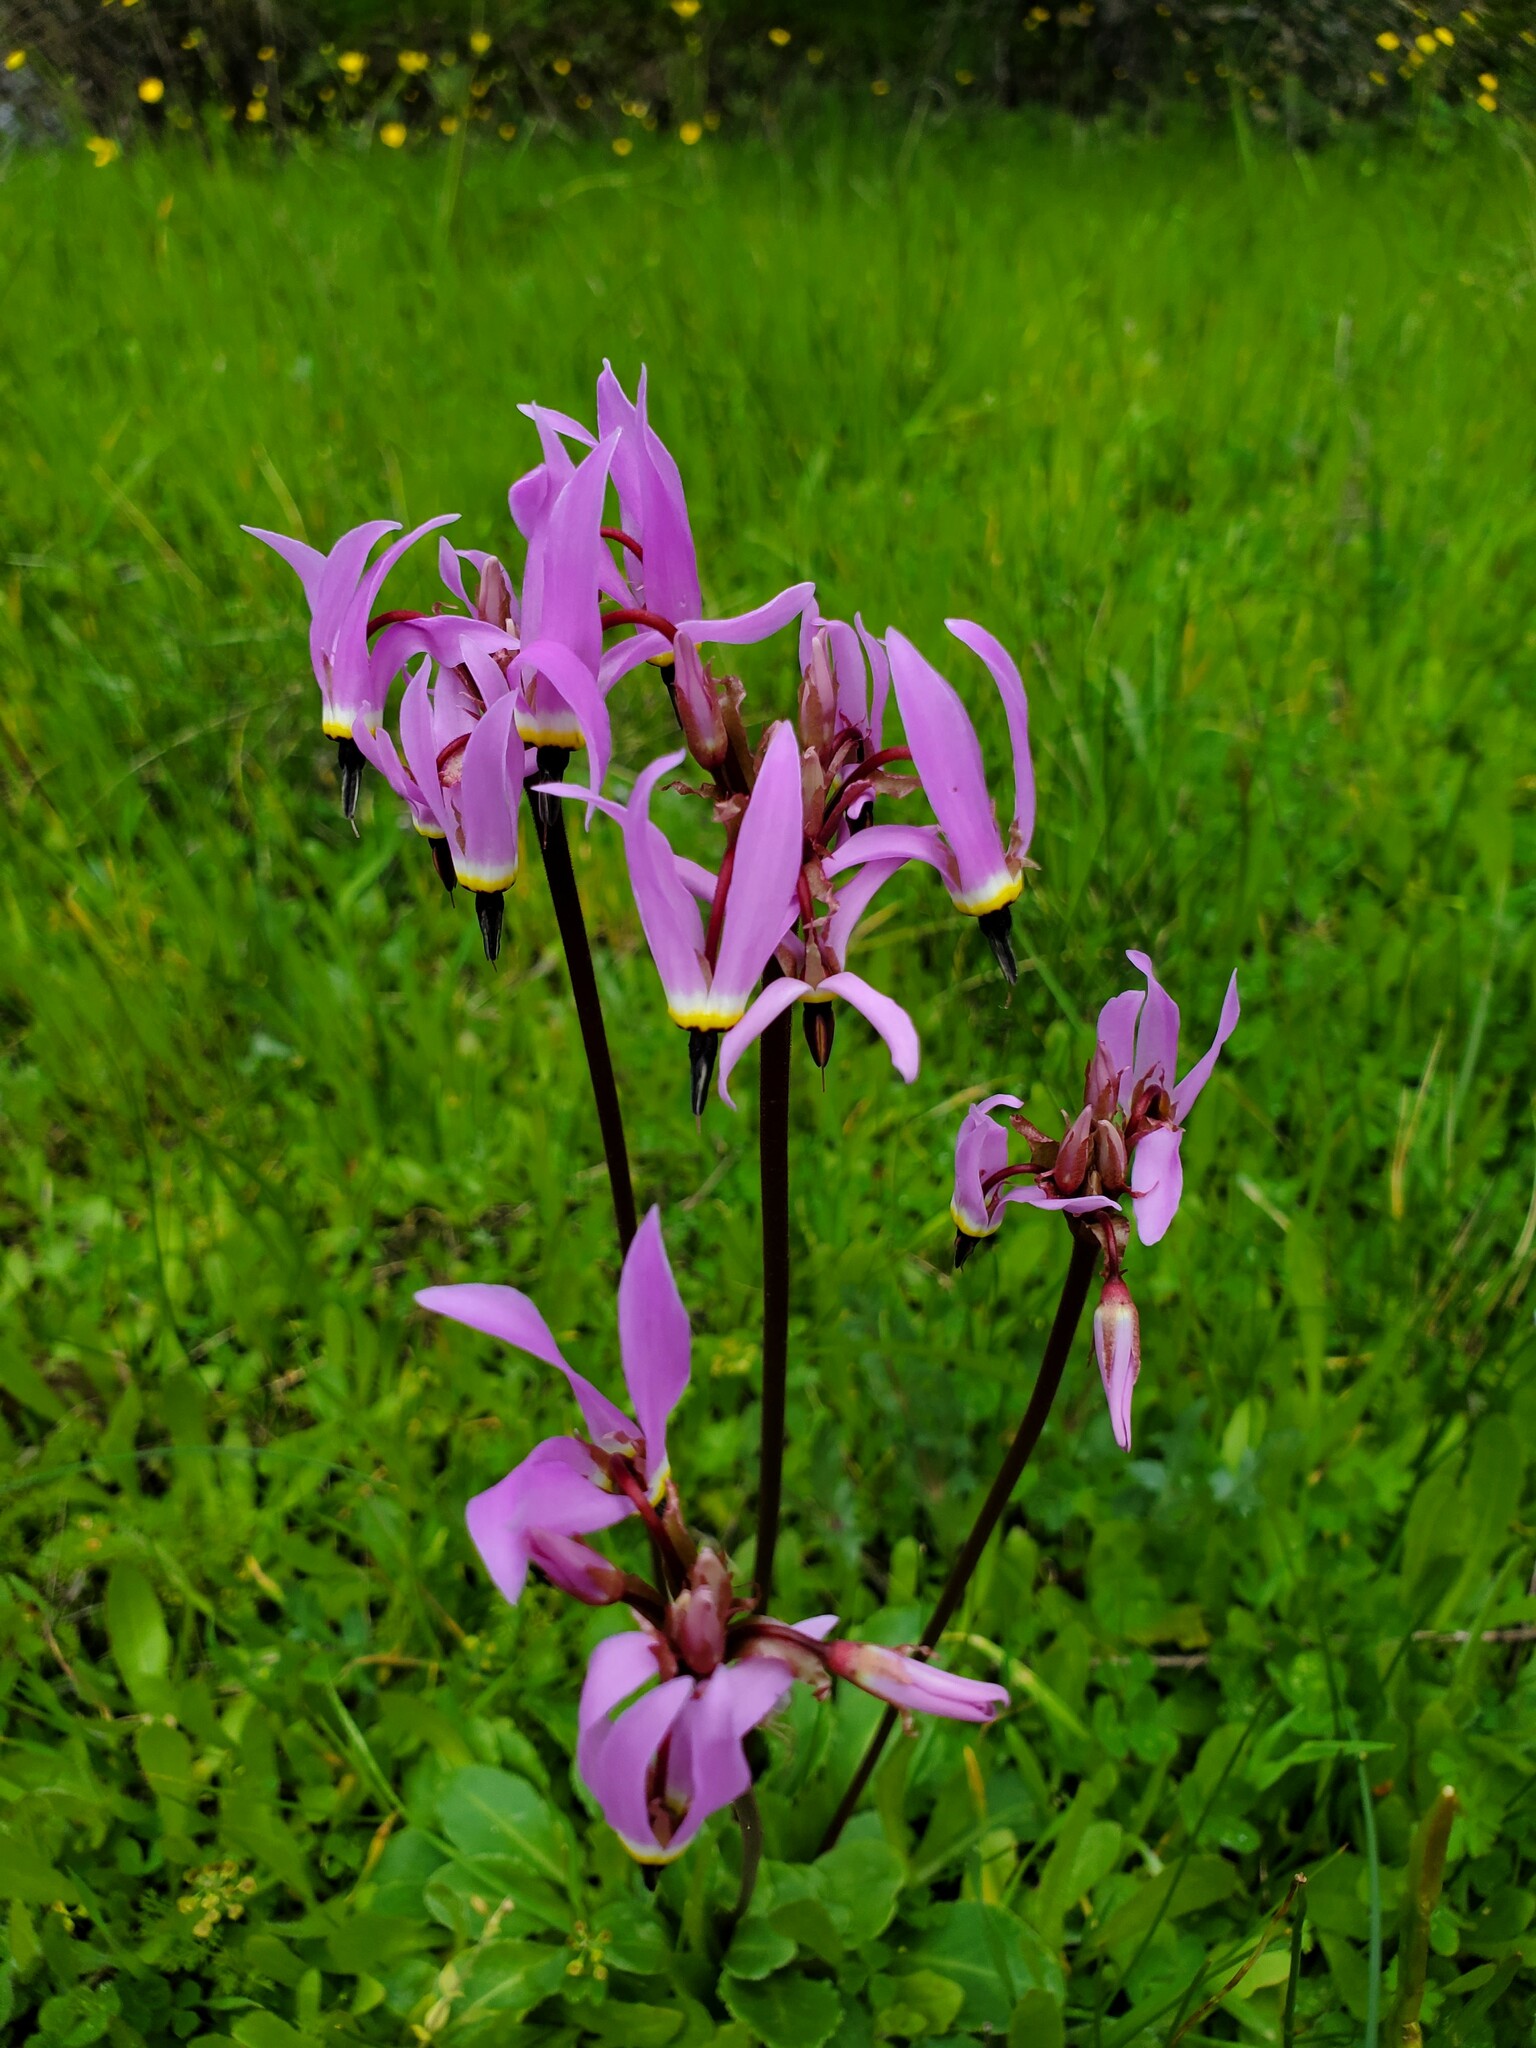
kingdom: Plantae
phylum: Tracheophyta
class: Magnoliopsida
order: Ericales
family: Primulaceae
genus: Dodecatheon
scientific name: Dodecatheon hendersonii
